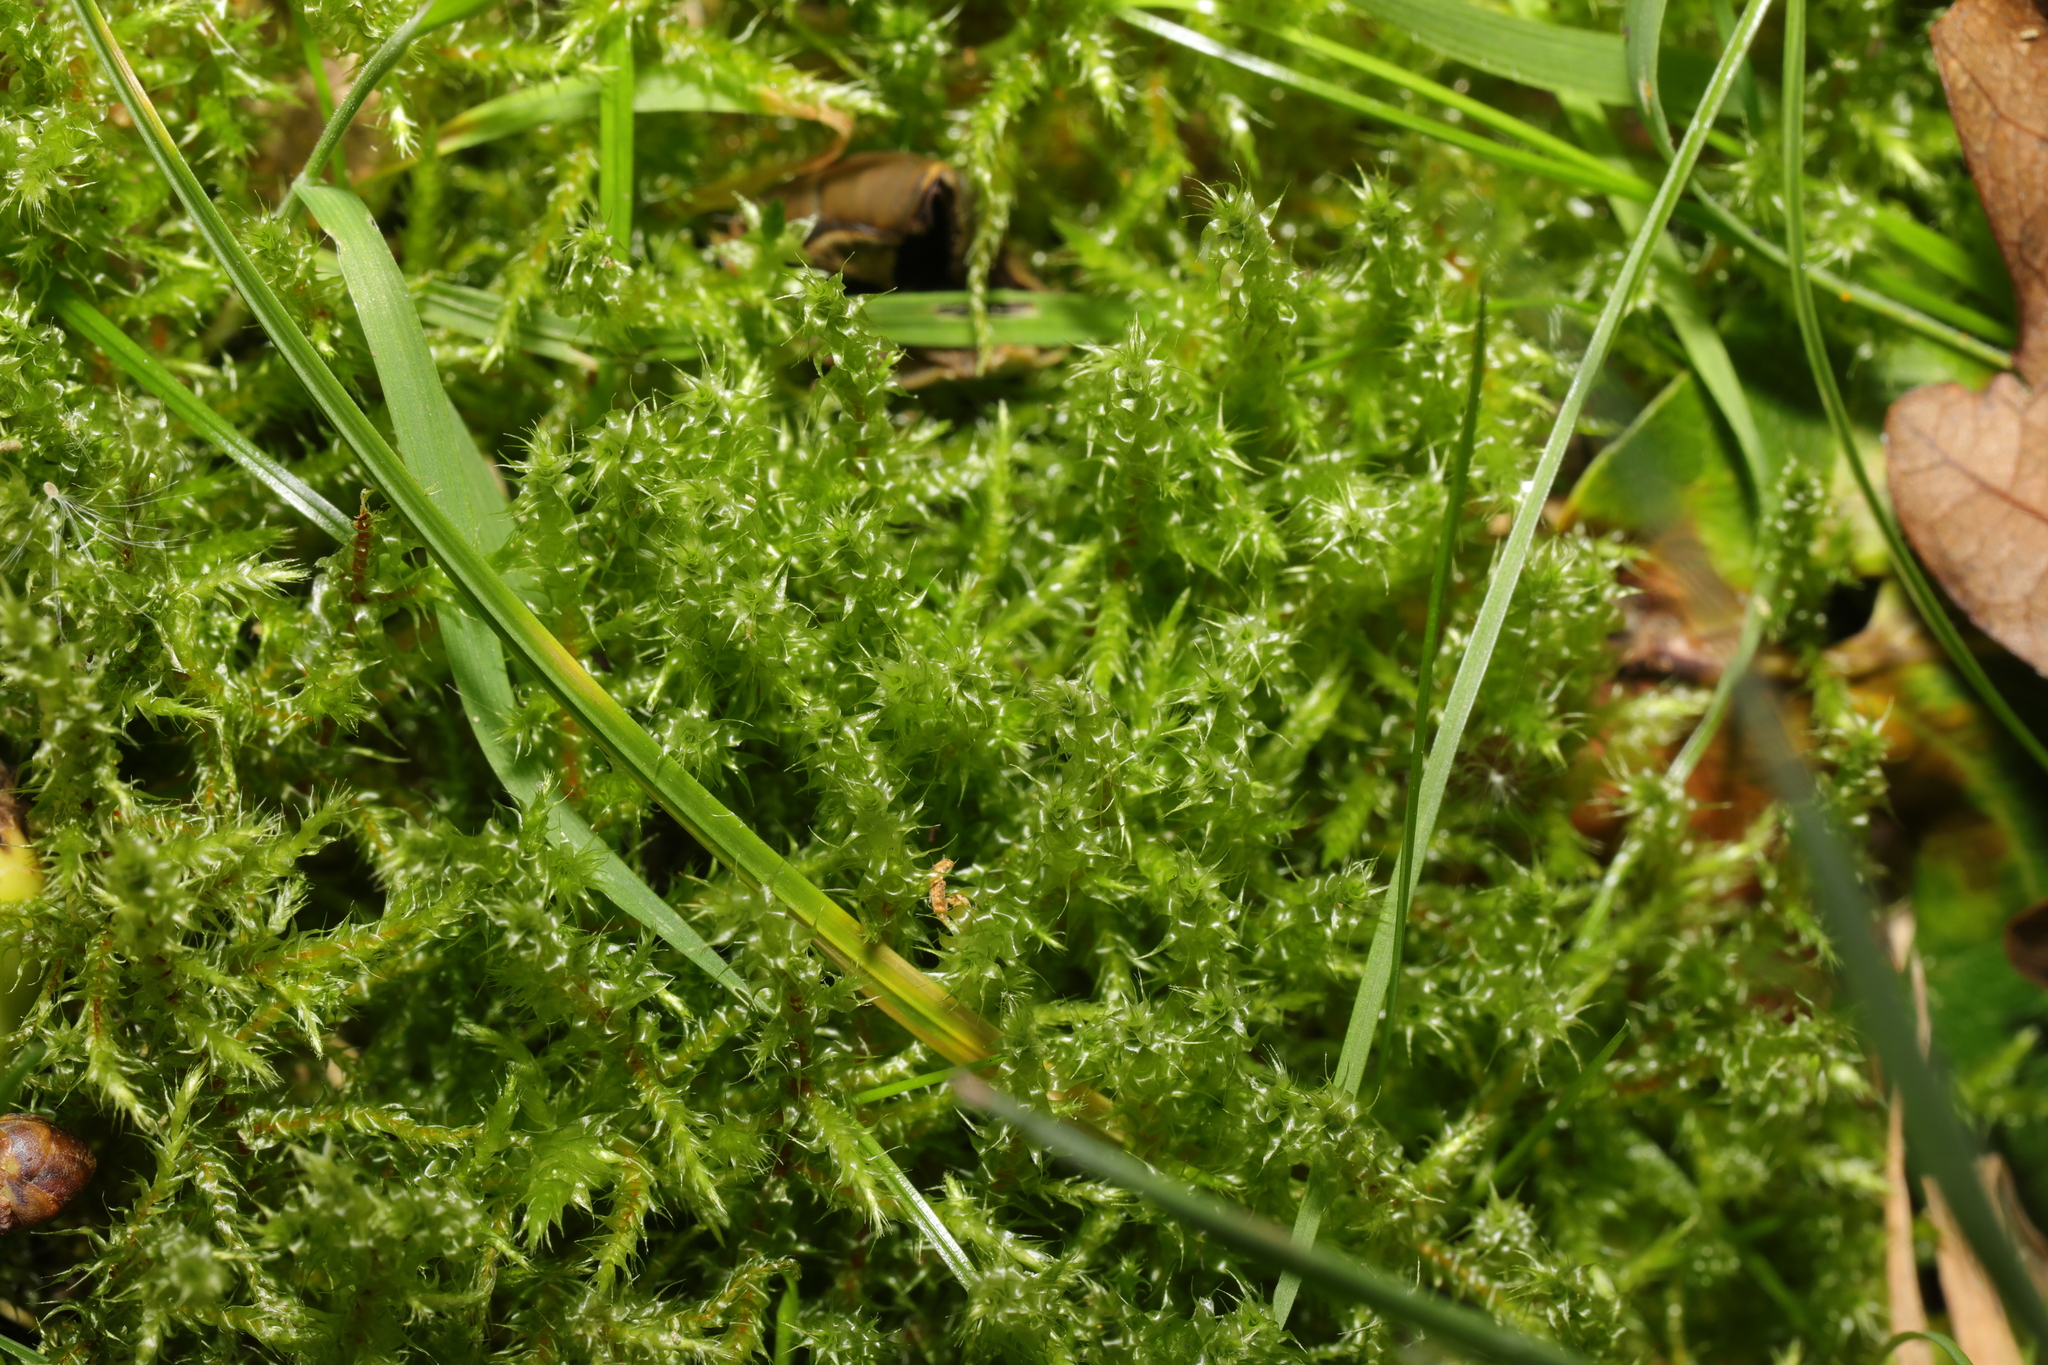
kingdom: Plantae
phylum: Bryophyta
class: Bryopsida
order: Hypnales
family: Hylocomiaceae
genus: Rhytidiadelphus
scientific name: Rhytidiadelphus squarrosus
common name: Springy turf-moss
